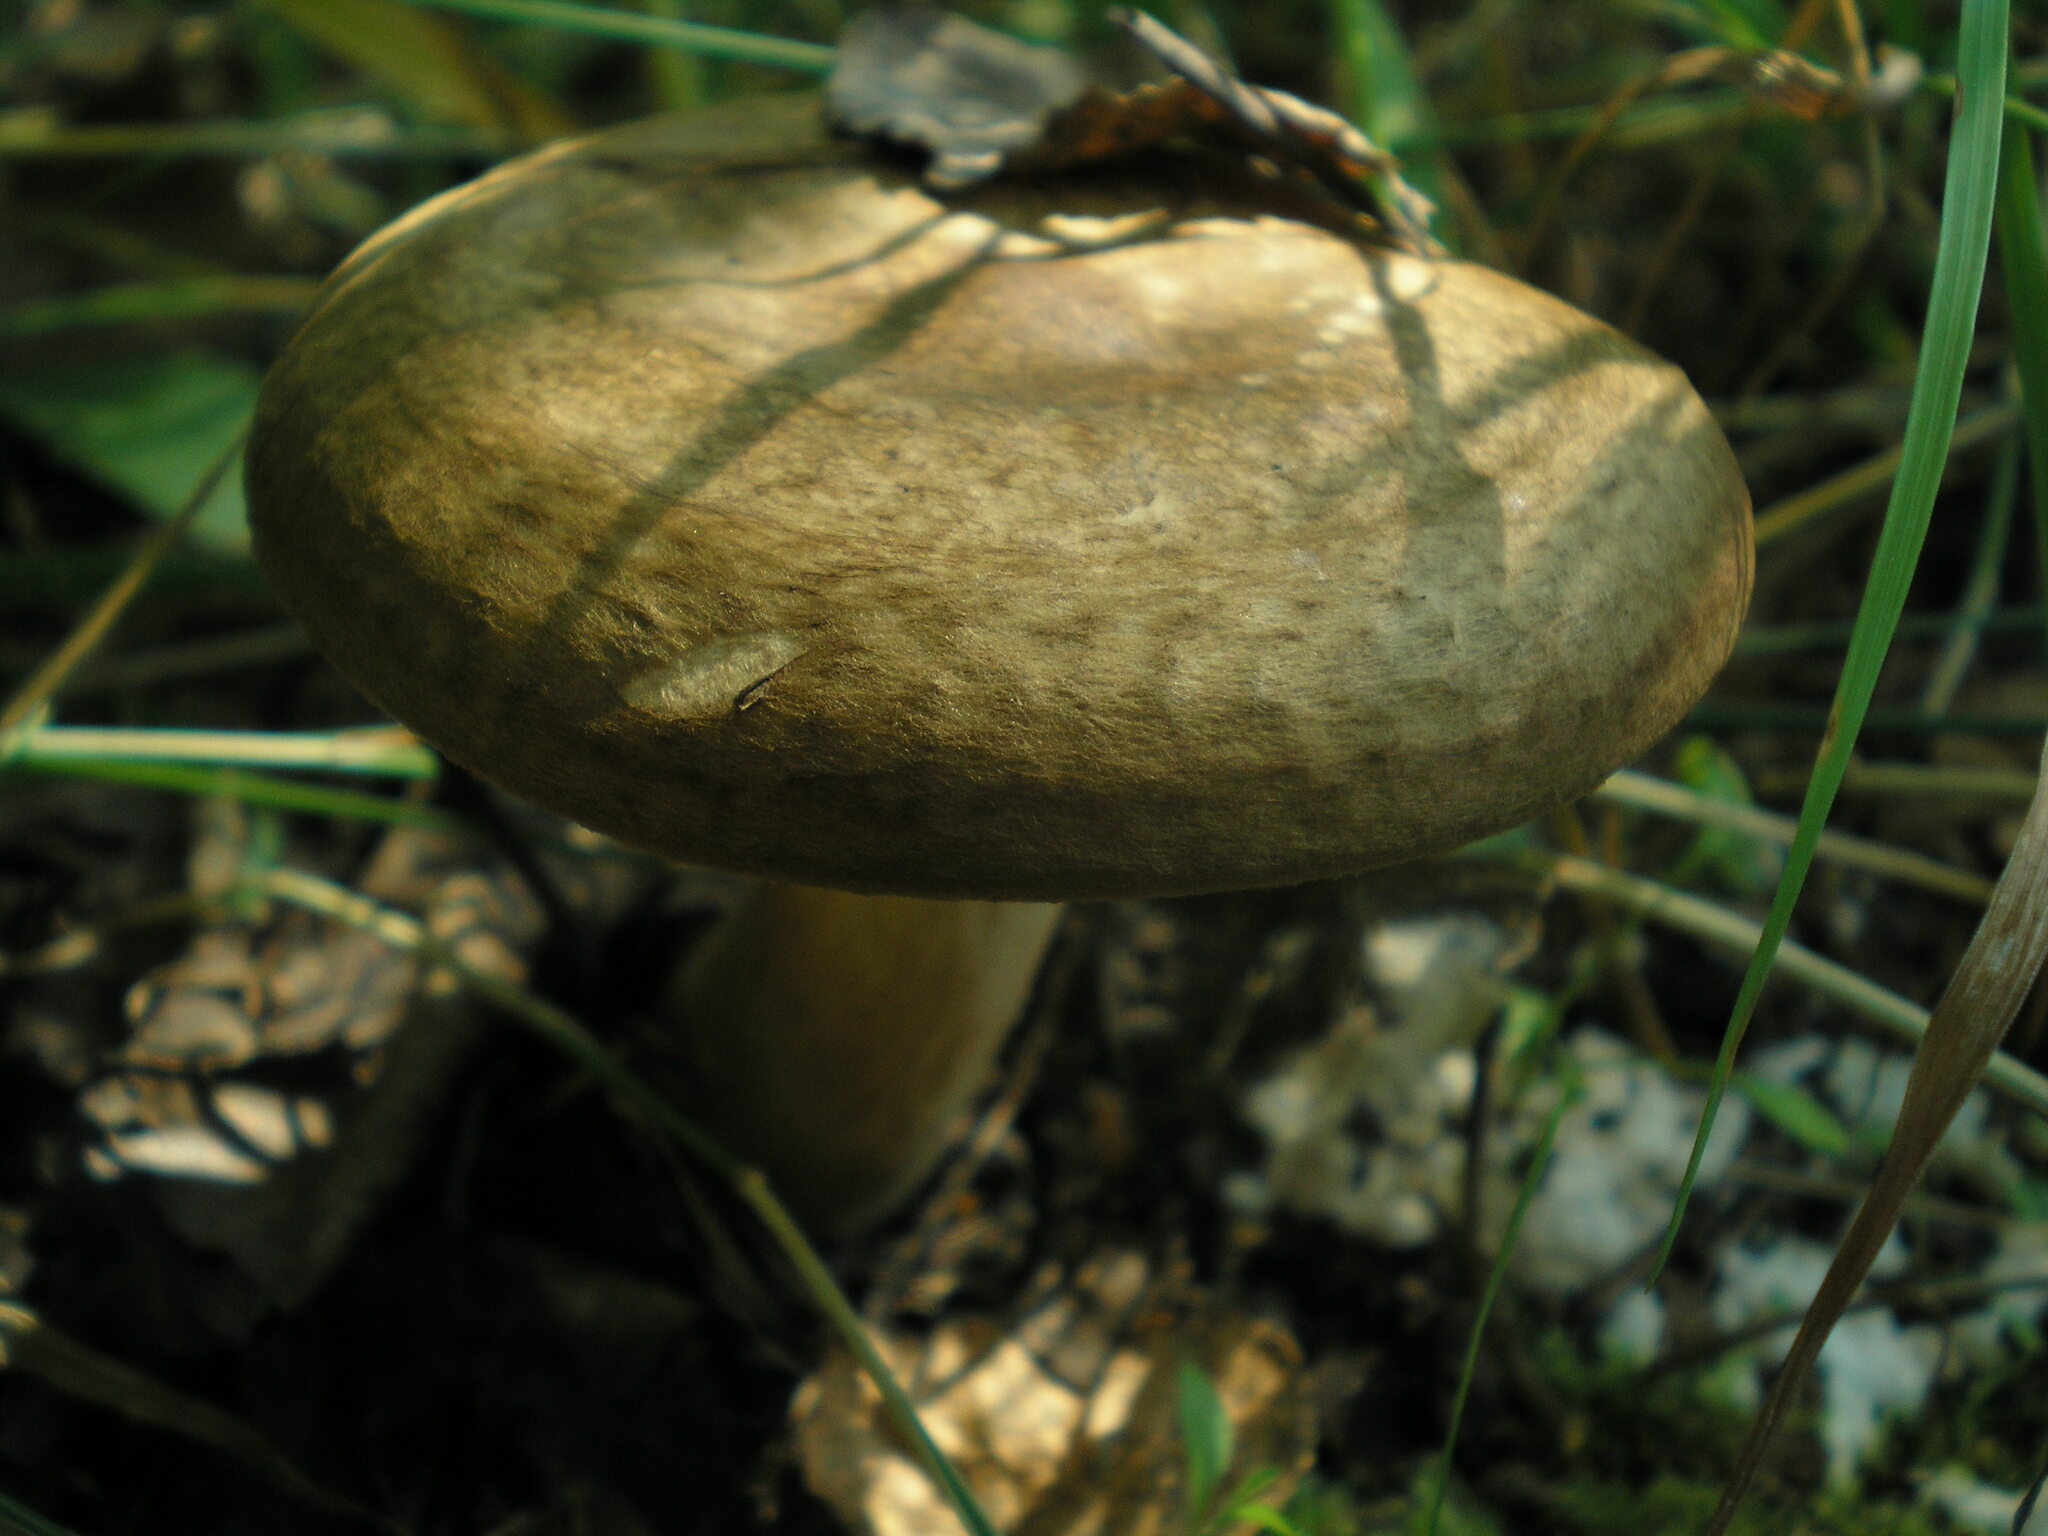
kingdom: Fungi
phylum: Basidiomycota
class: Agaricomycetes
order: Boletales
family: Paxillaceae
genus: Paxillus
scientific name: Paxillus involutus
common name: Brown roll rim
